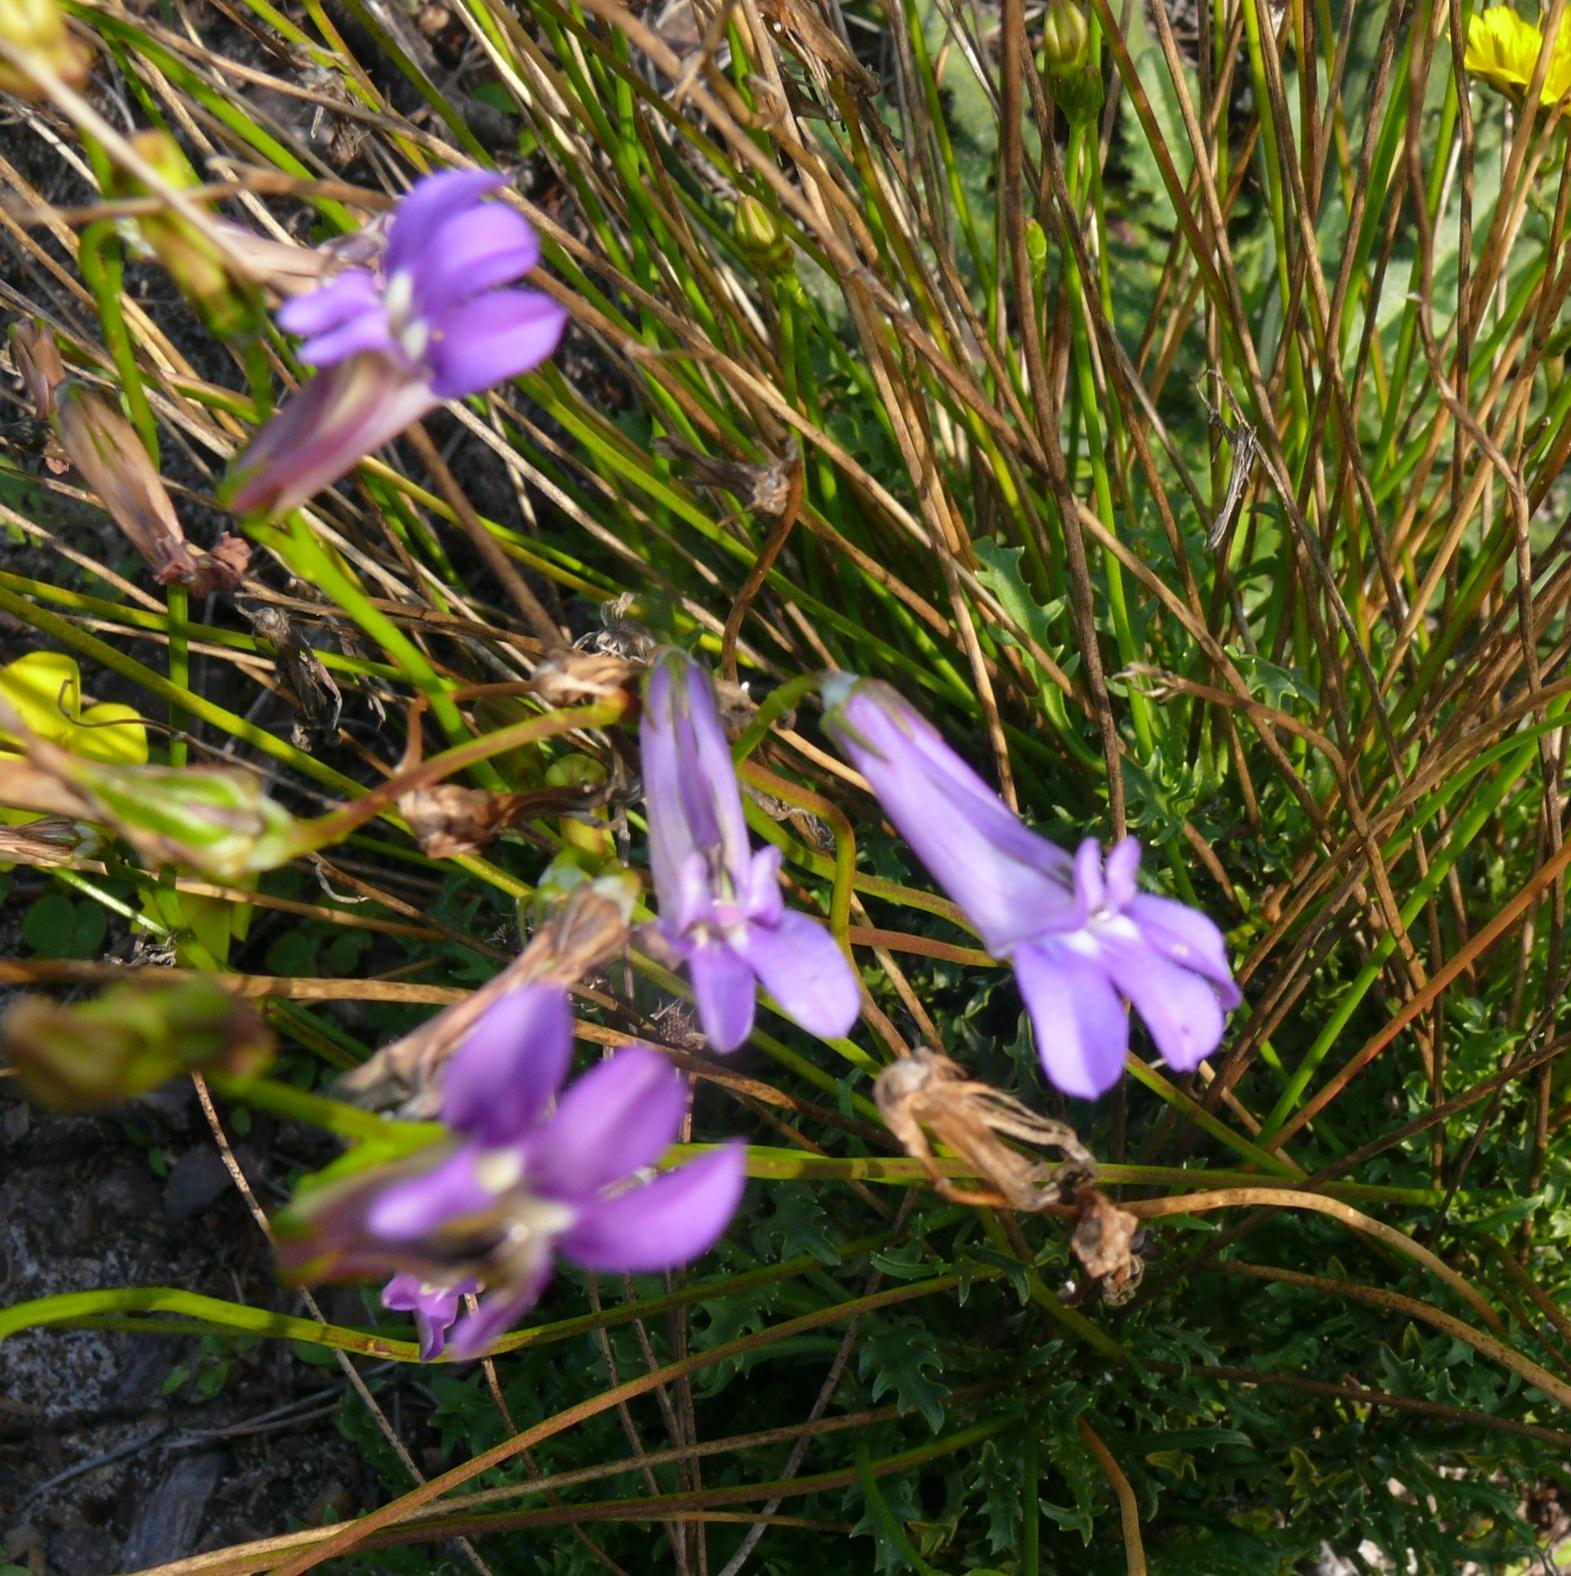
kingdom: Plantae
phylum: Tracheophyta
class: Magnoliopsida
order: Asterales
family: Campanulaceae
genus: Lobelia
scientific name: Lobelia coronopifolia
